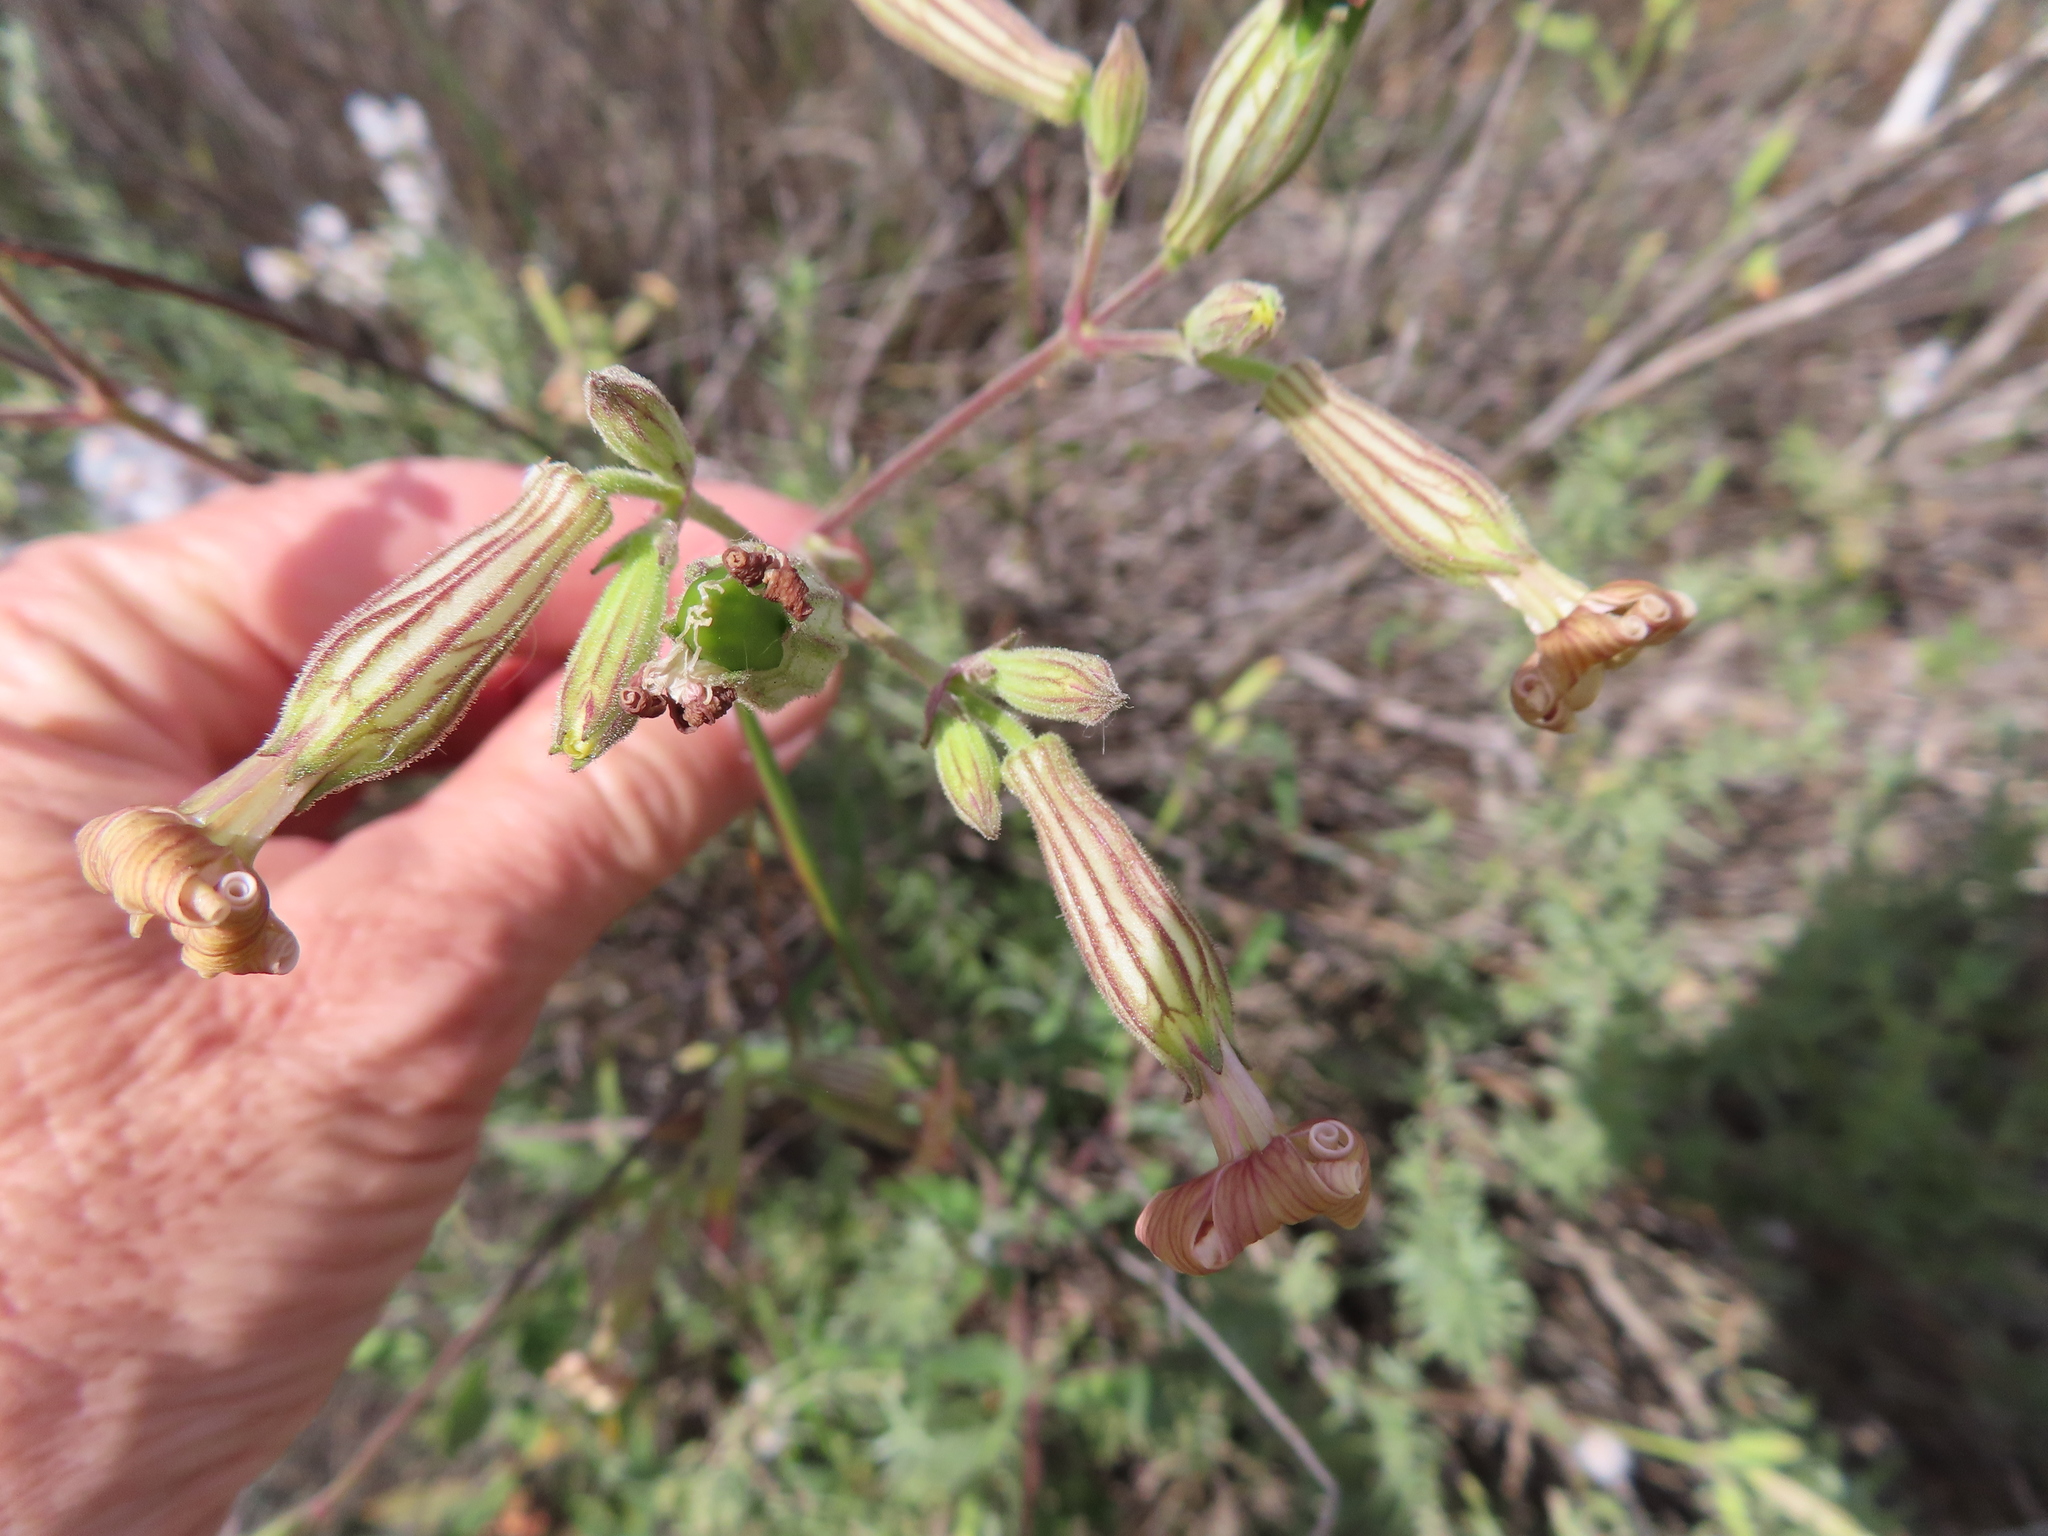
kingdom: Plantae
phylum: Tracheophyta
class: Magnoliopsida
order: Caryophyllales
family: Caryophyllaceae
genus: Silene
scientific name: Silene undulata
